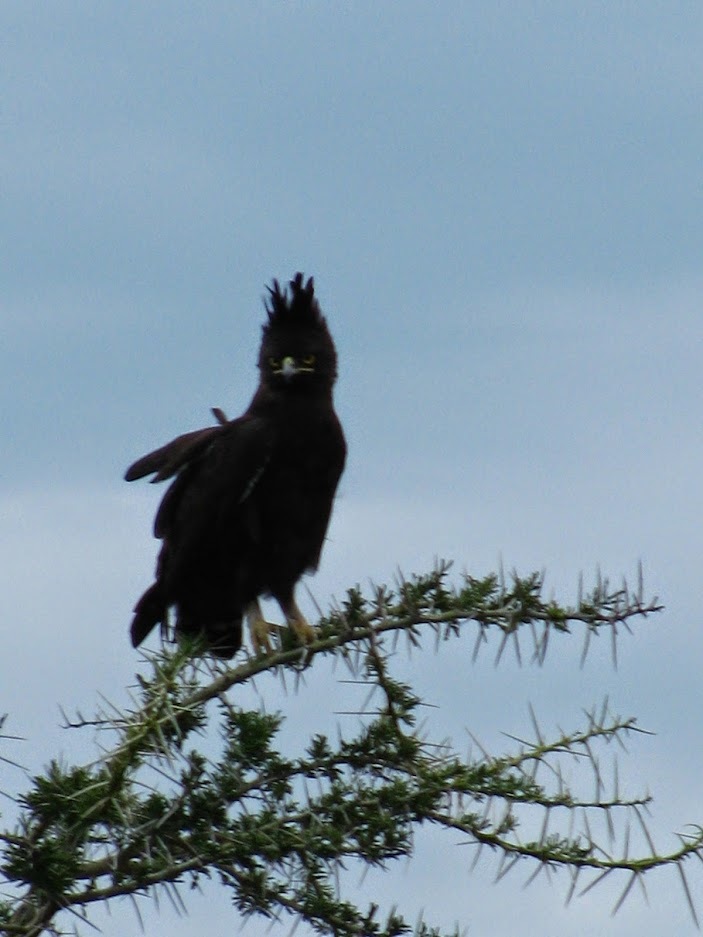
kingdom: Animalia
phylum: Chordata
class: Aves
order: Accipitriformes
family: Accipitridae
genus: Lophaetus
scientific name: Lophaetus occipitalis
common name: Long-crested eagle
